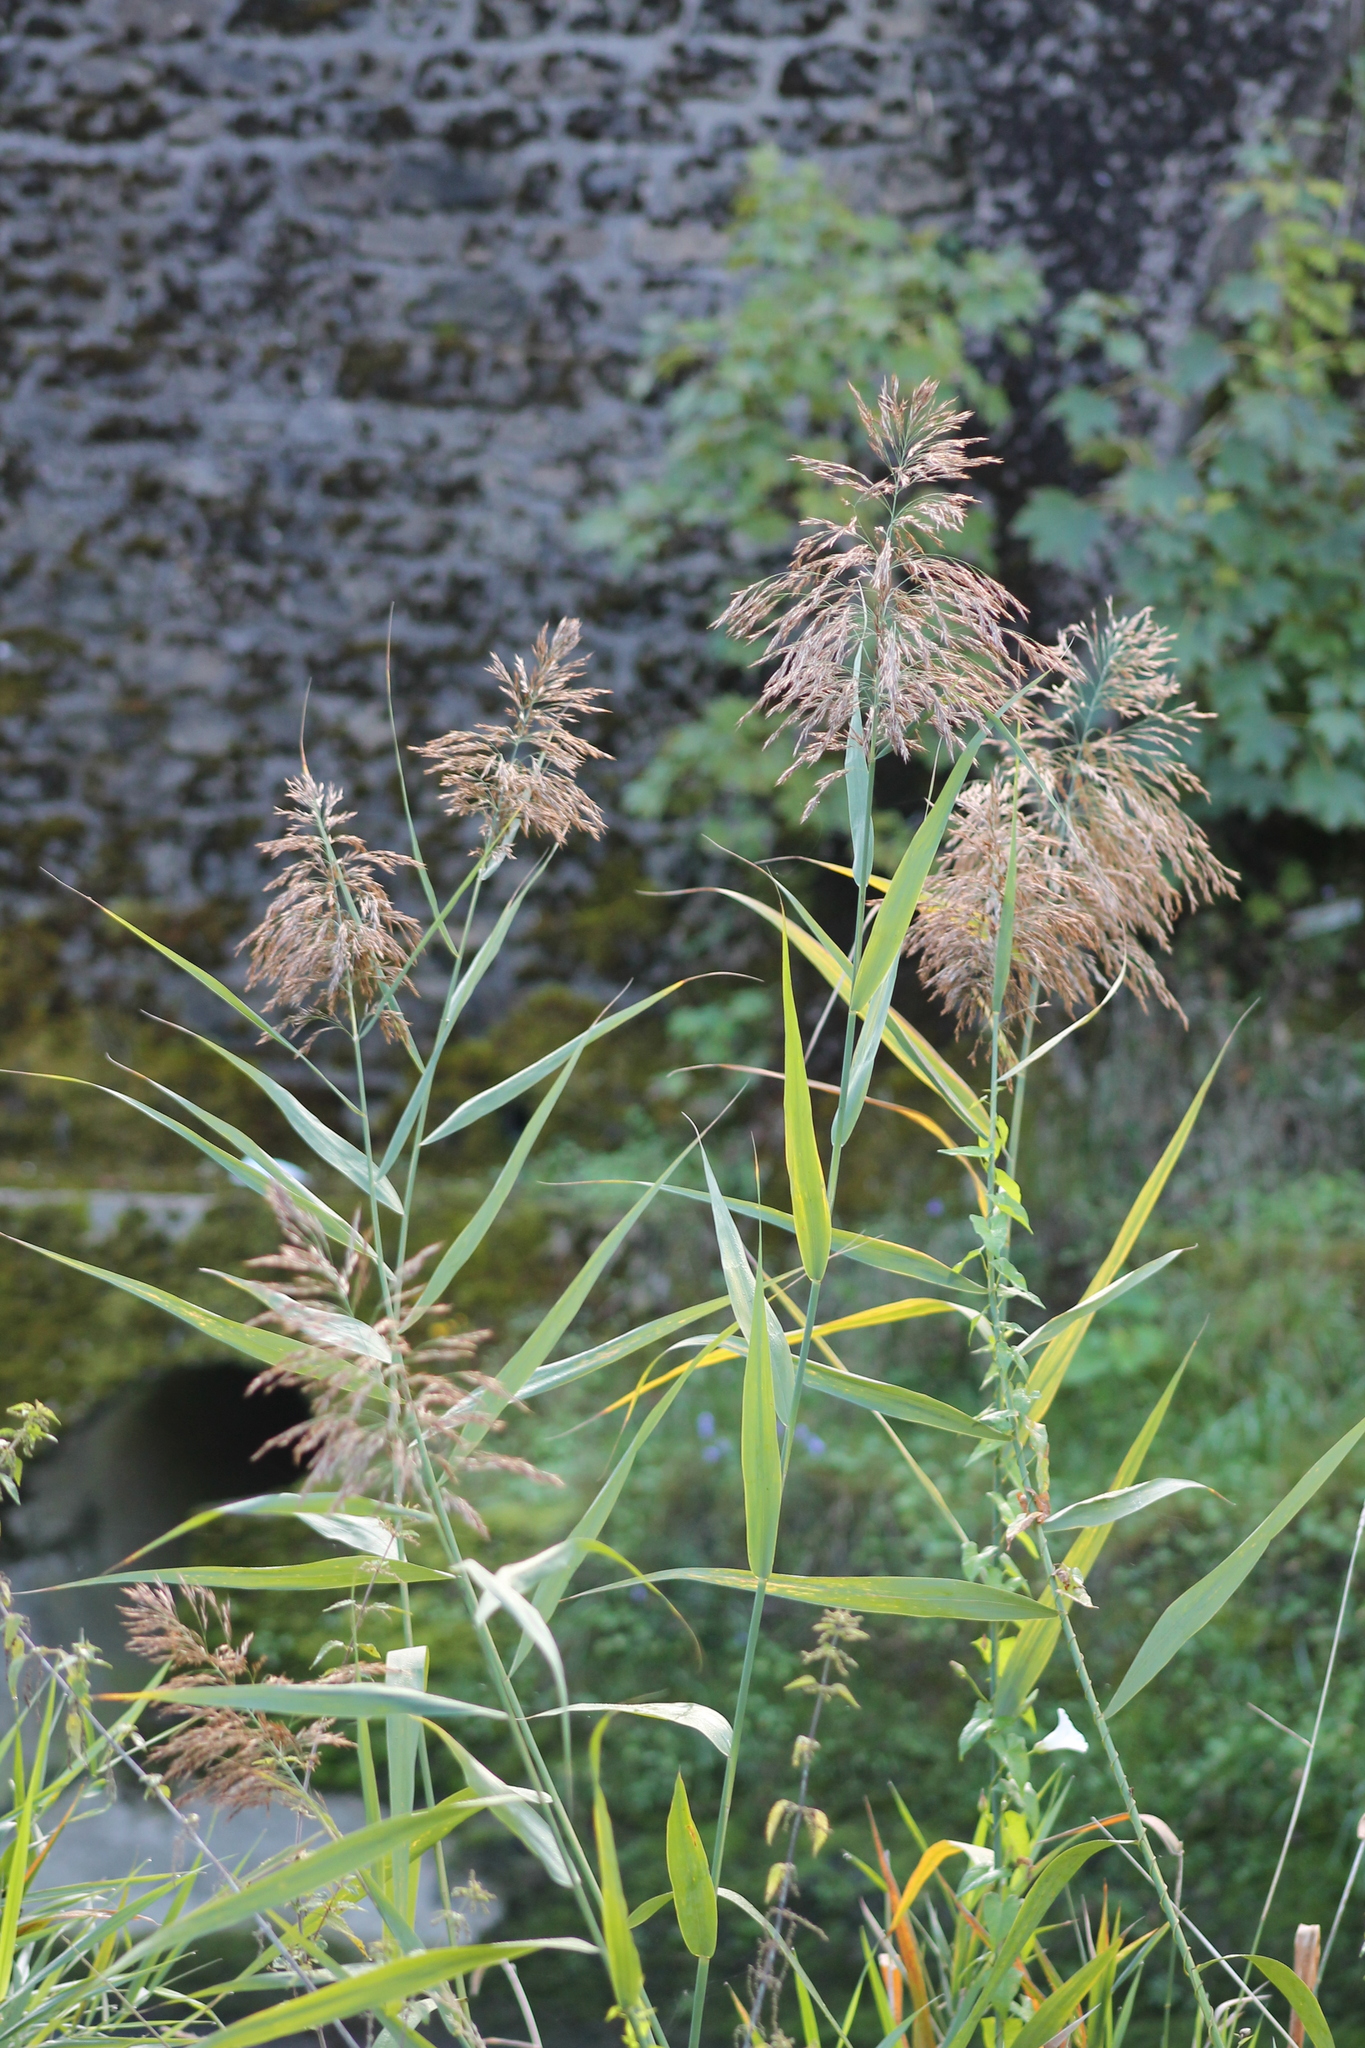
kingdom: Plantae
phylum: Tracheophyta
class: Liliopsida
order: Poales
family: Poaceae
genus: Phragmites
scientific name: Phragmites australis
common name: Common reed
